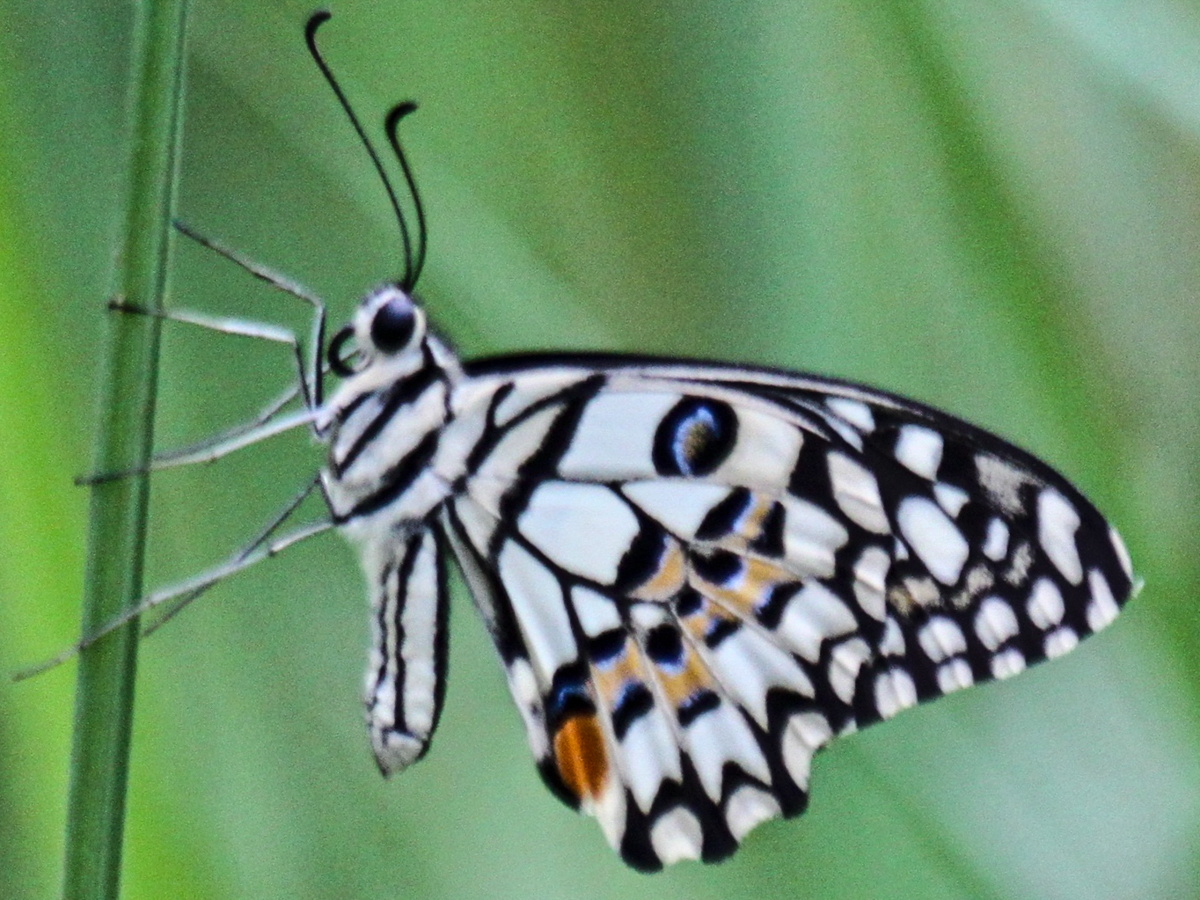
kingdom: Animalia
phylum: Arthropoda
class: Insecta
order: Lepidoptera
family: Papilionidae
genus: Papilio
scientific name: Papilio demoleus
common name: Lime butterfly
